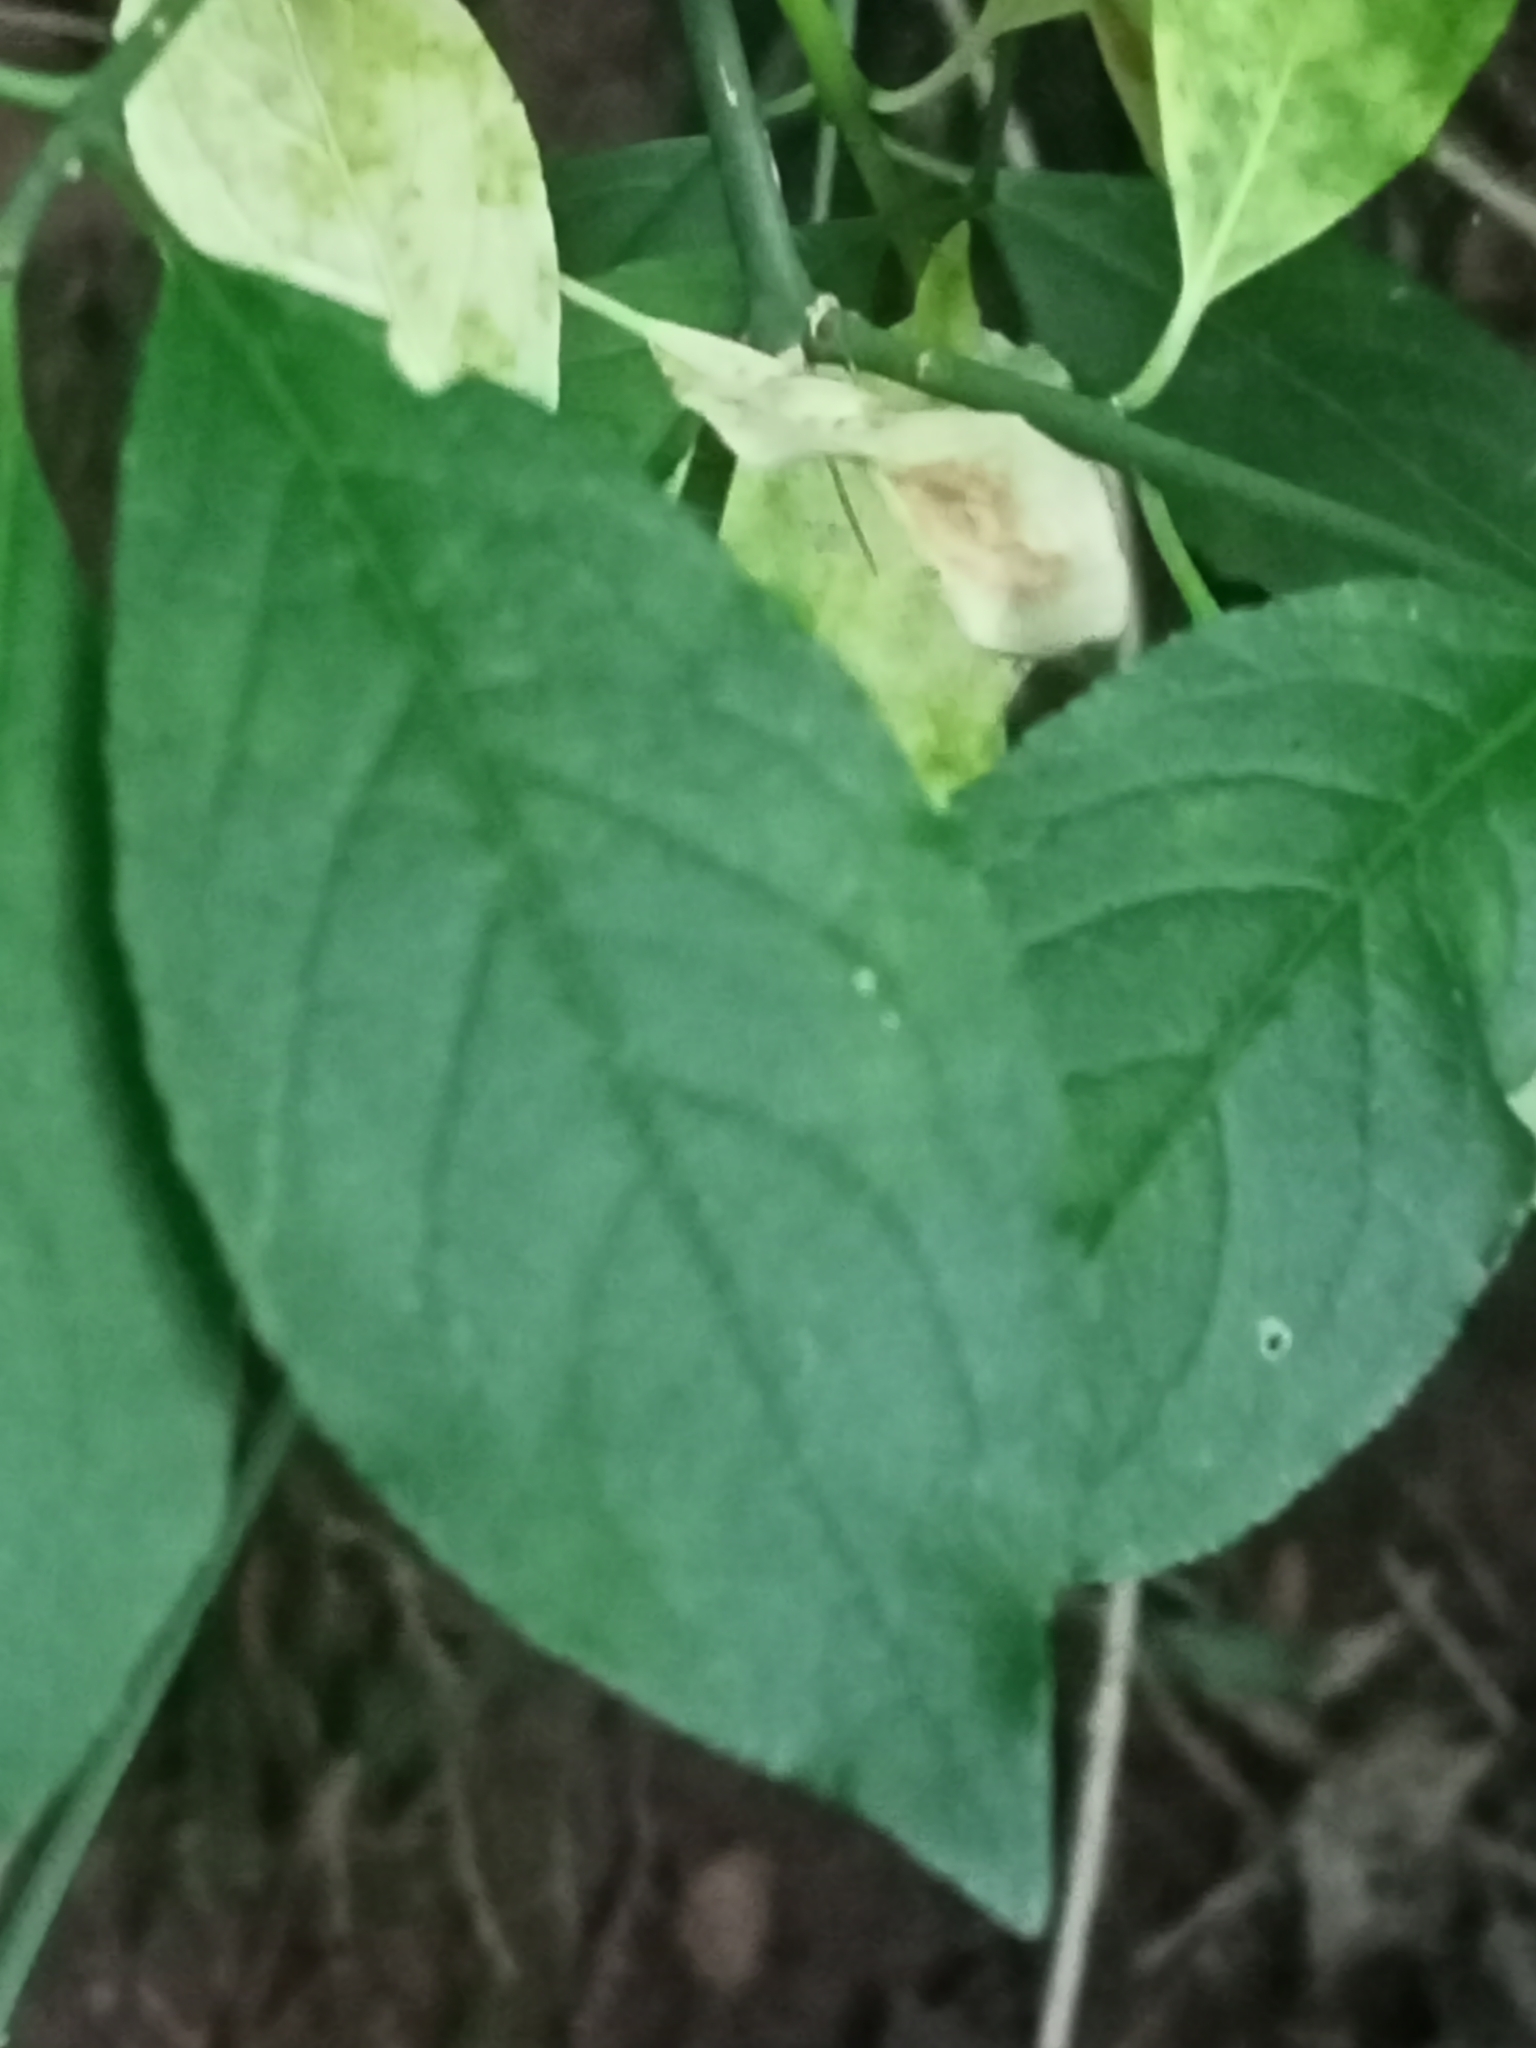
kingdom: Plantae
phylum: Tracheophyta
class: Magnoliopsida
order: Celastrales
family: Celastraceae
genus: Euonymus
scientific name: Euonymus europaeus
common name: Spindle
